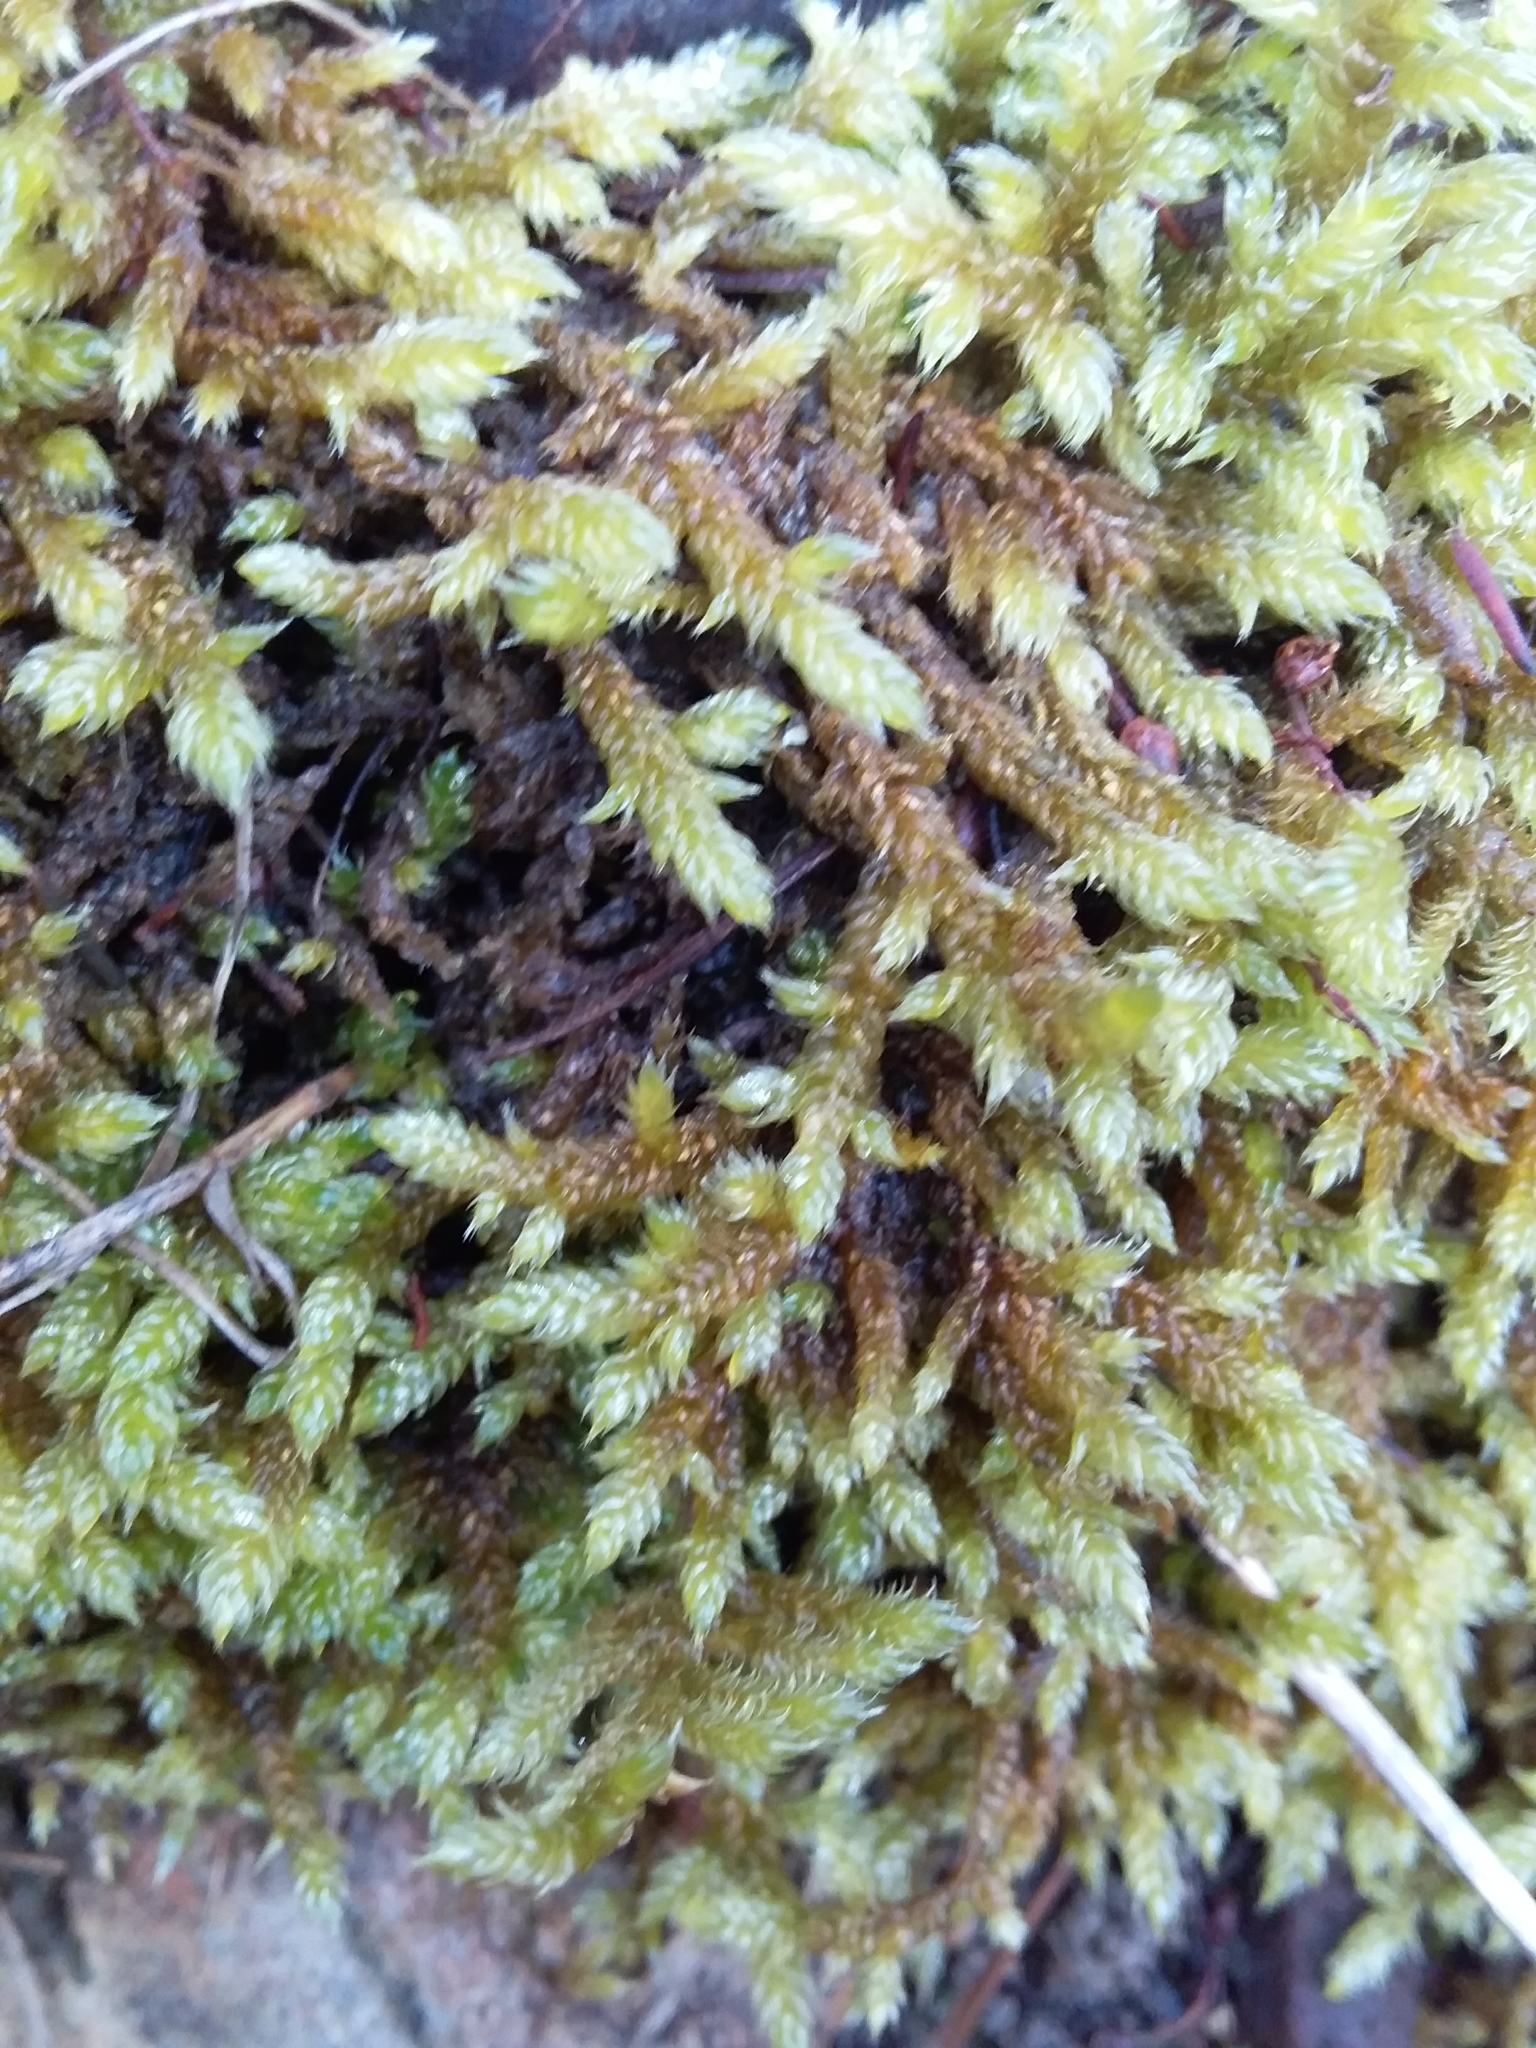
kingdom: Plantae
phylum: Bryophyta
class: Bryopsida
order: Hypnales
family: Hypnaceae
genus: Hypnum
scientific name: Hypnum cupressiforme
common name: Cypress-leaved plait-moss
